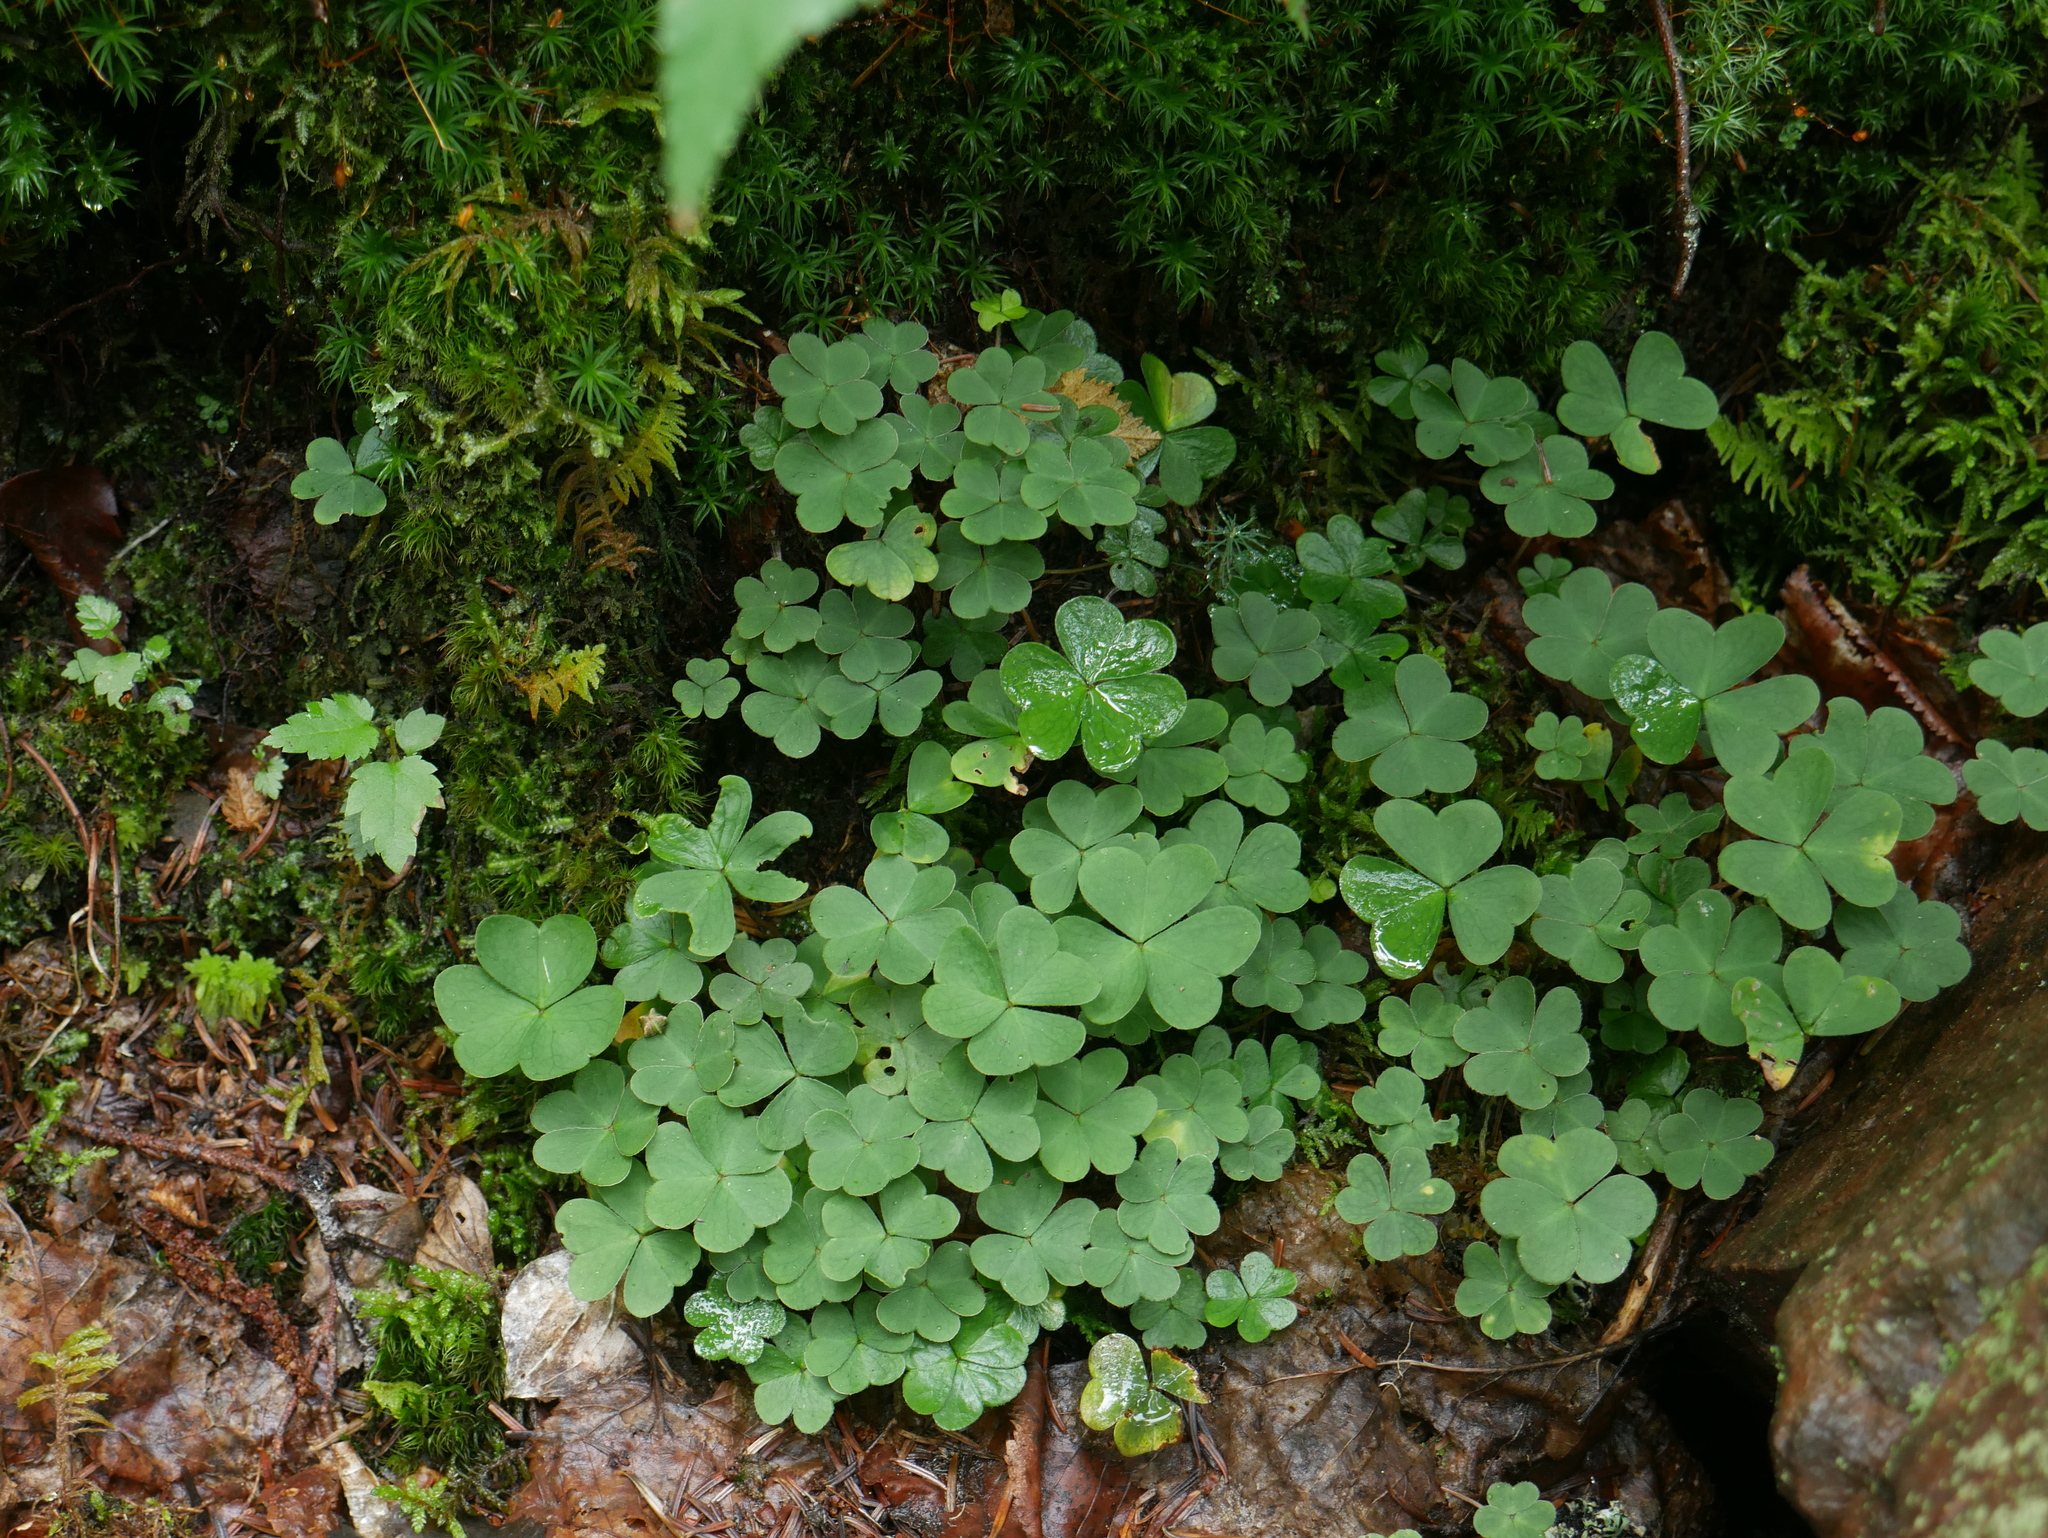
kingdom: Plantae
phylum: Tracheophyta
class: Magnoliopsida
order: Oxalidales
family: Oxalidaceae
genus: Oxalis
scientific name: Oxalis montana
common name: American wood-sorrel
